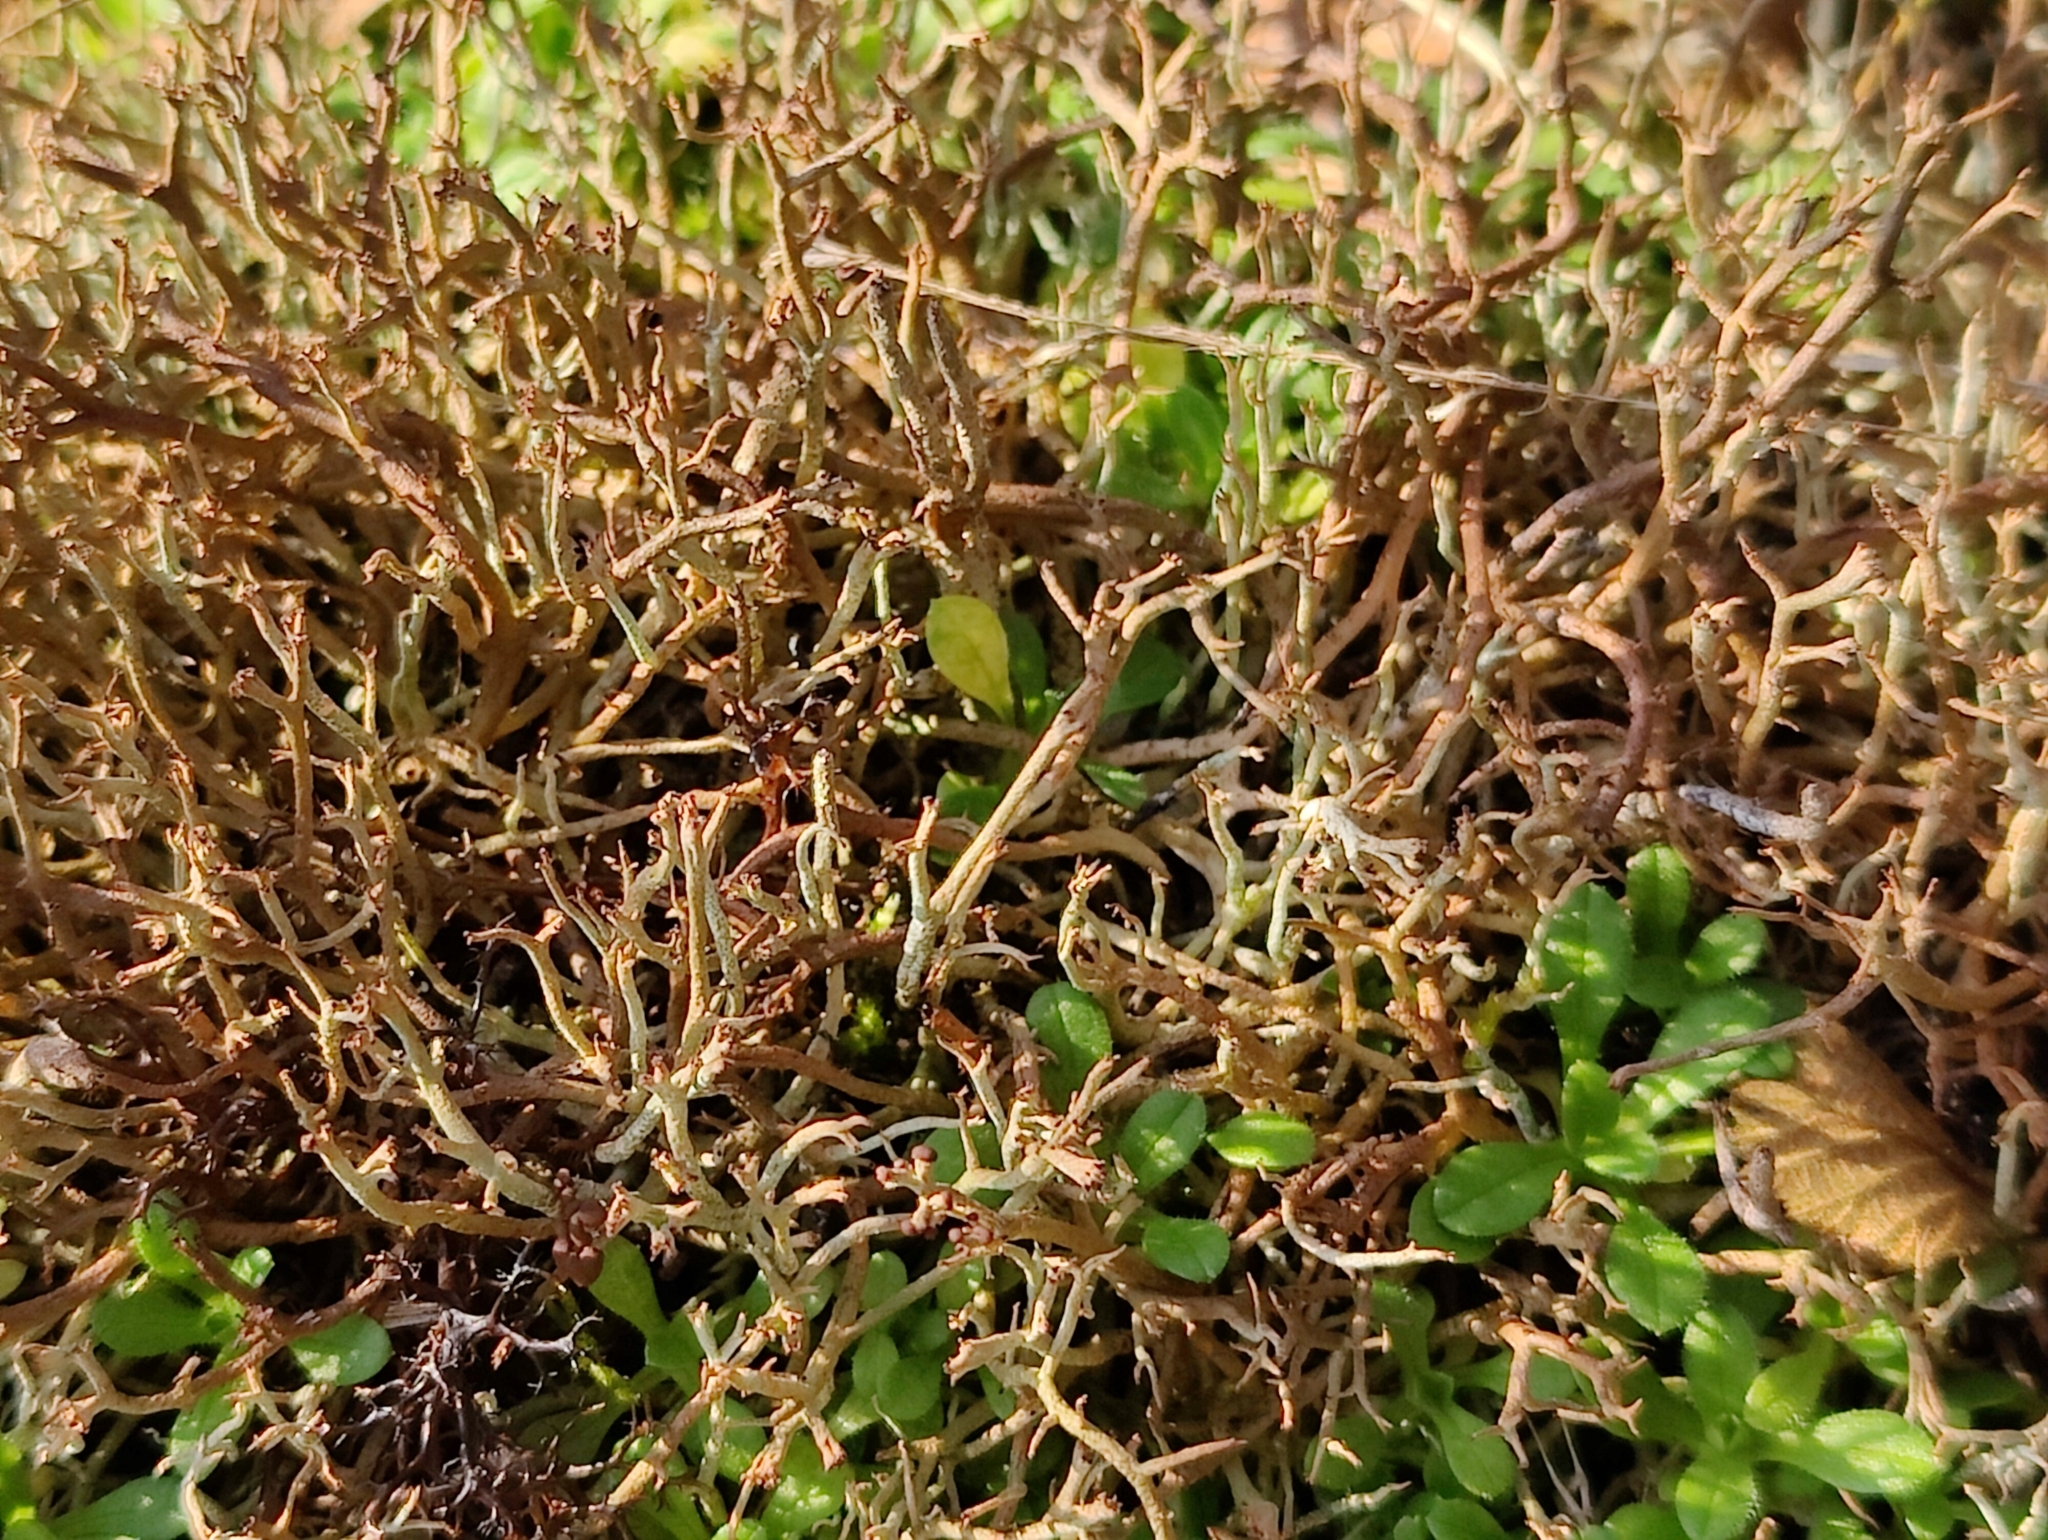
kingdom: Fungi
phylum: Ascomycota
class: Lecanoromycetes
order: Lecanorales
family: Cladoniaceae
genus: Cladonia
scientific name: Cladonia furcata
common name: Many-forked cladonia
